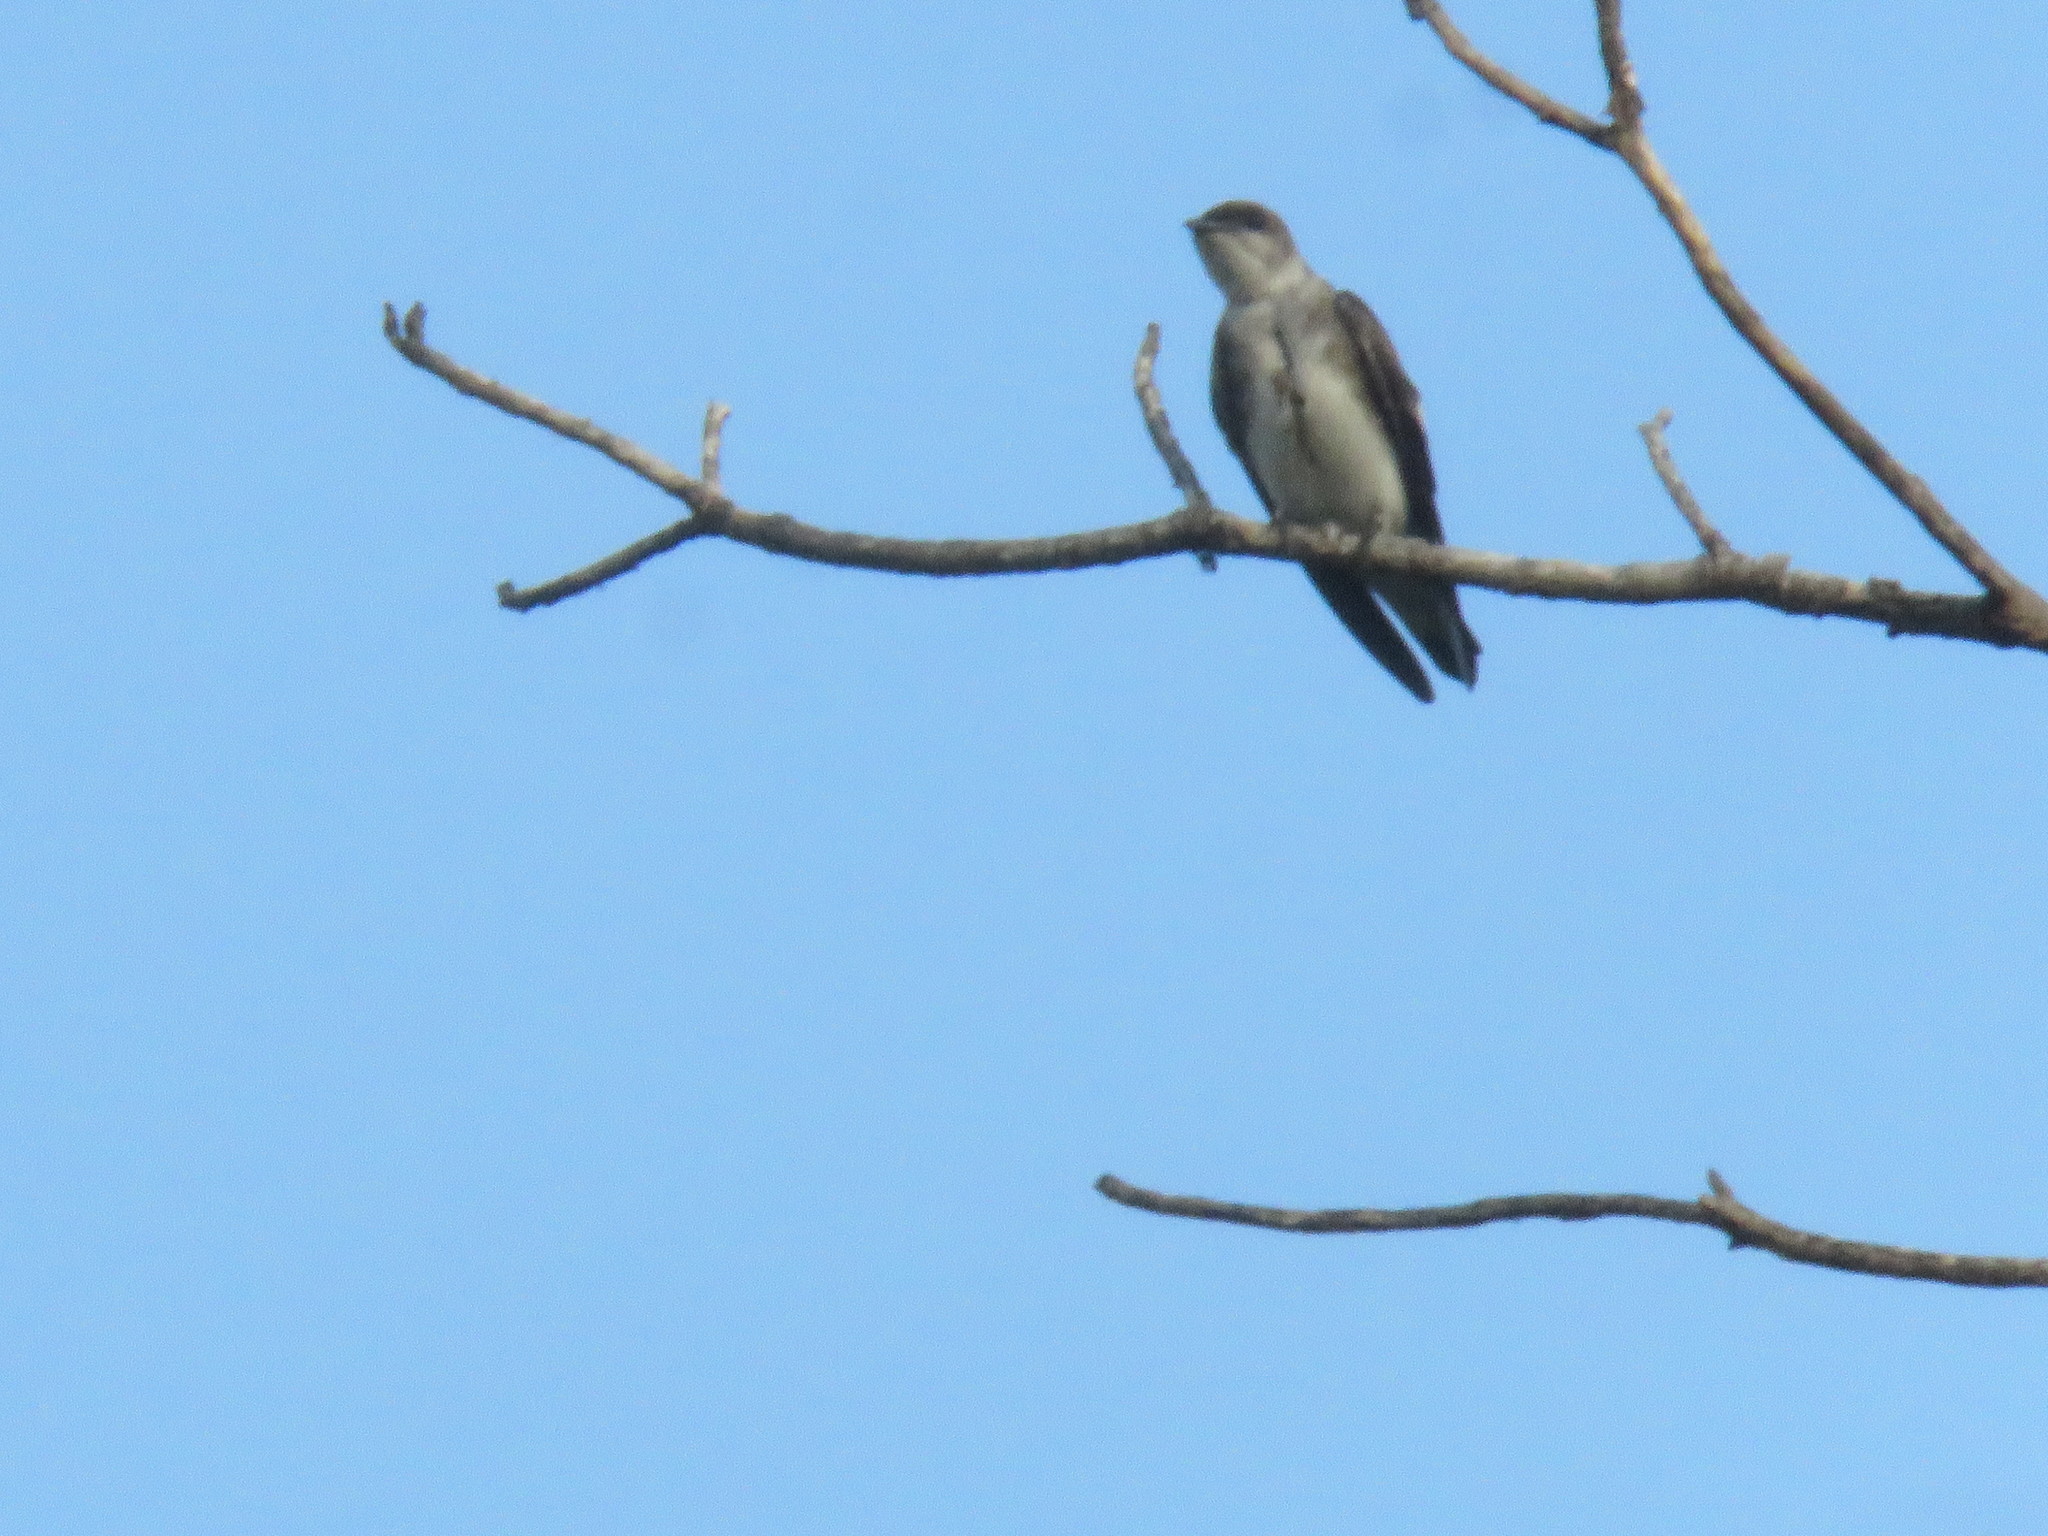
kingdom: Animalia
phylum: Chordata
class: Aves
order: Passeriformes
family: Hirundinidae
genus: Progne
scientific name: Progne tapera
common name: Brown-chested martin
